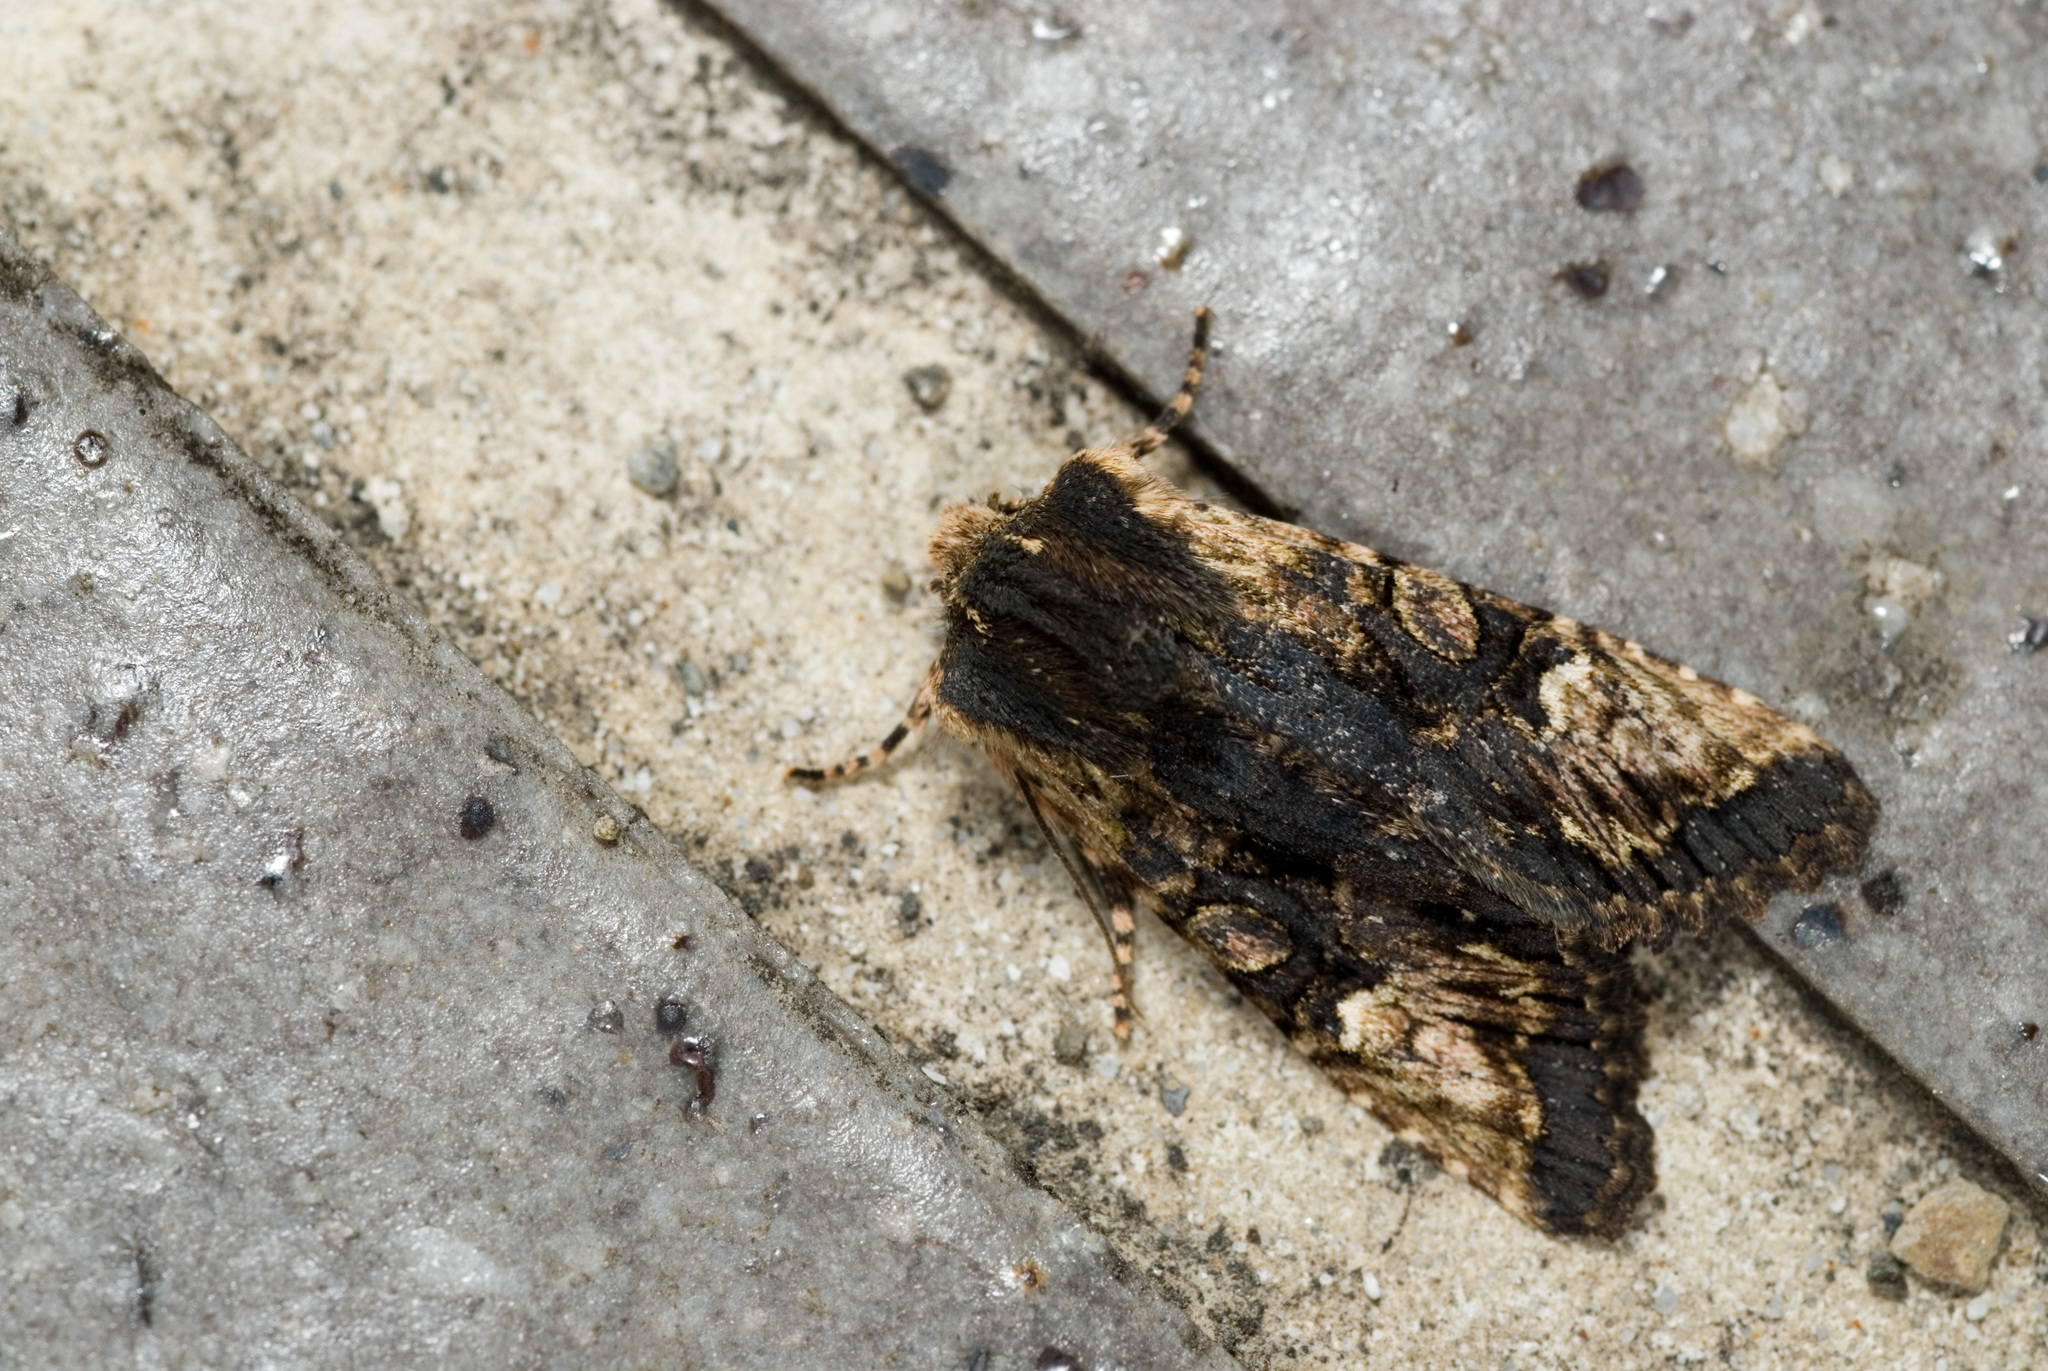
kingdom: Animalia
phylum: Arthropoda
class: Insecta
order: Lepidoptera
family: Noctuidae
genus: Nyctycia
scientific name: Nyctycia strigidisca
